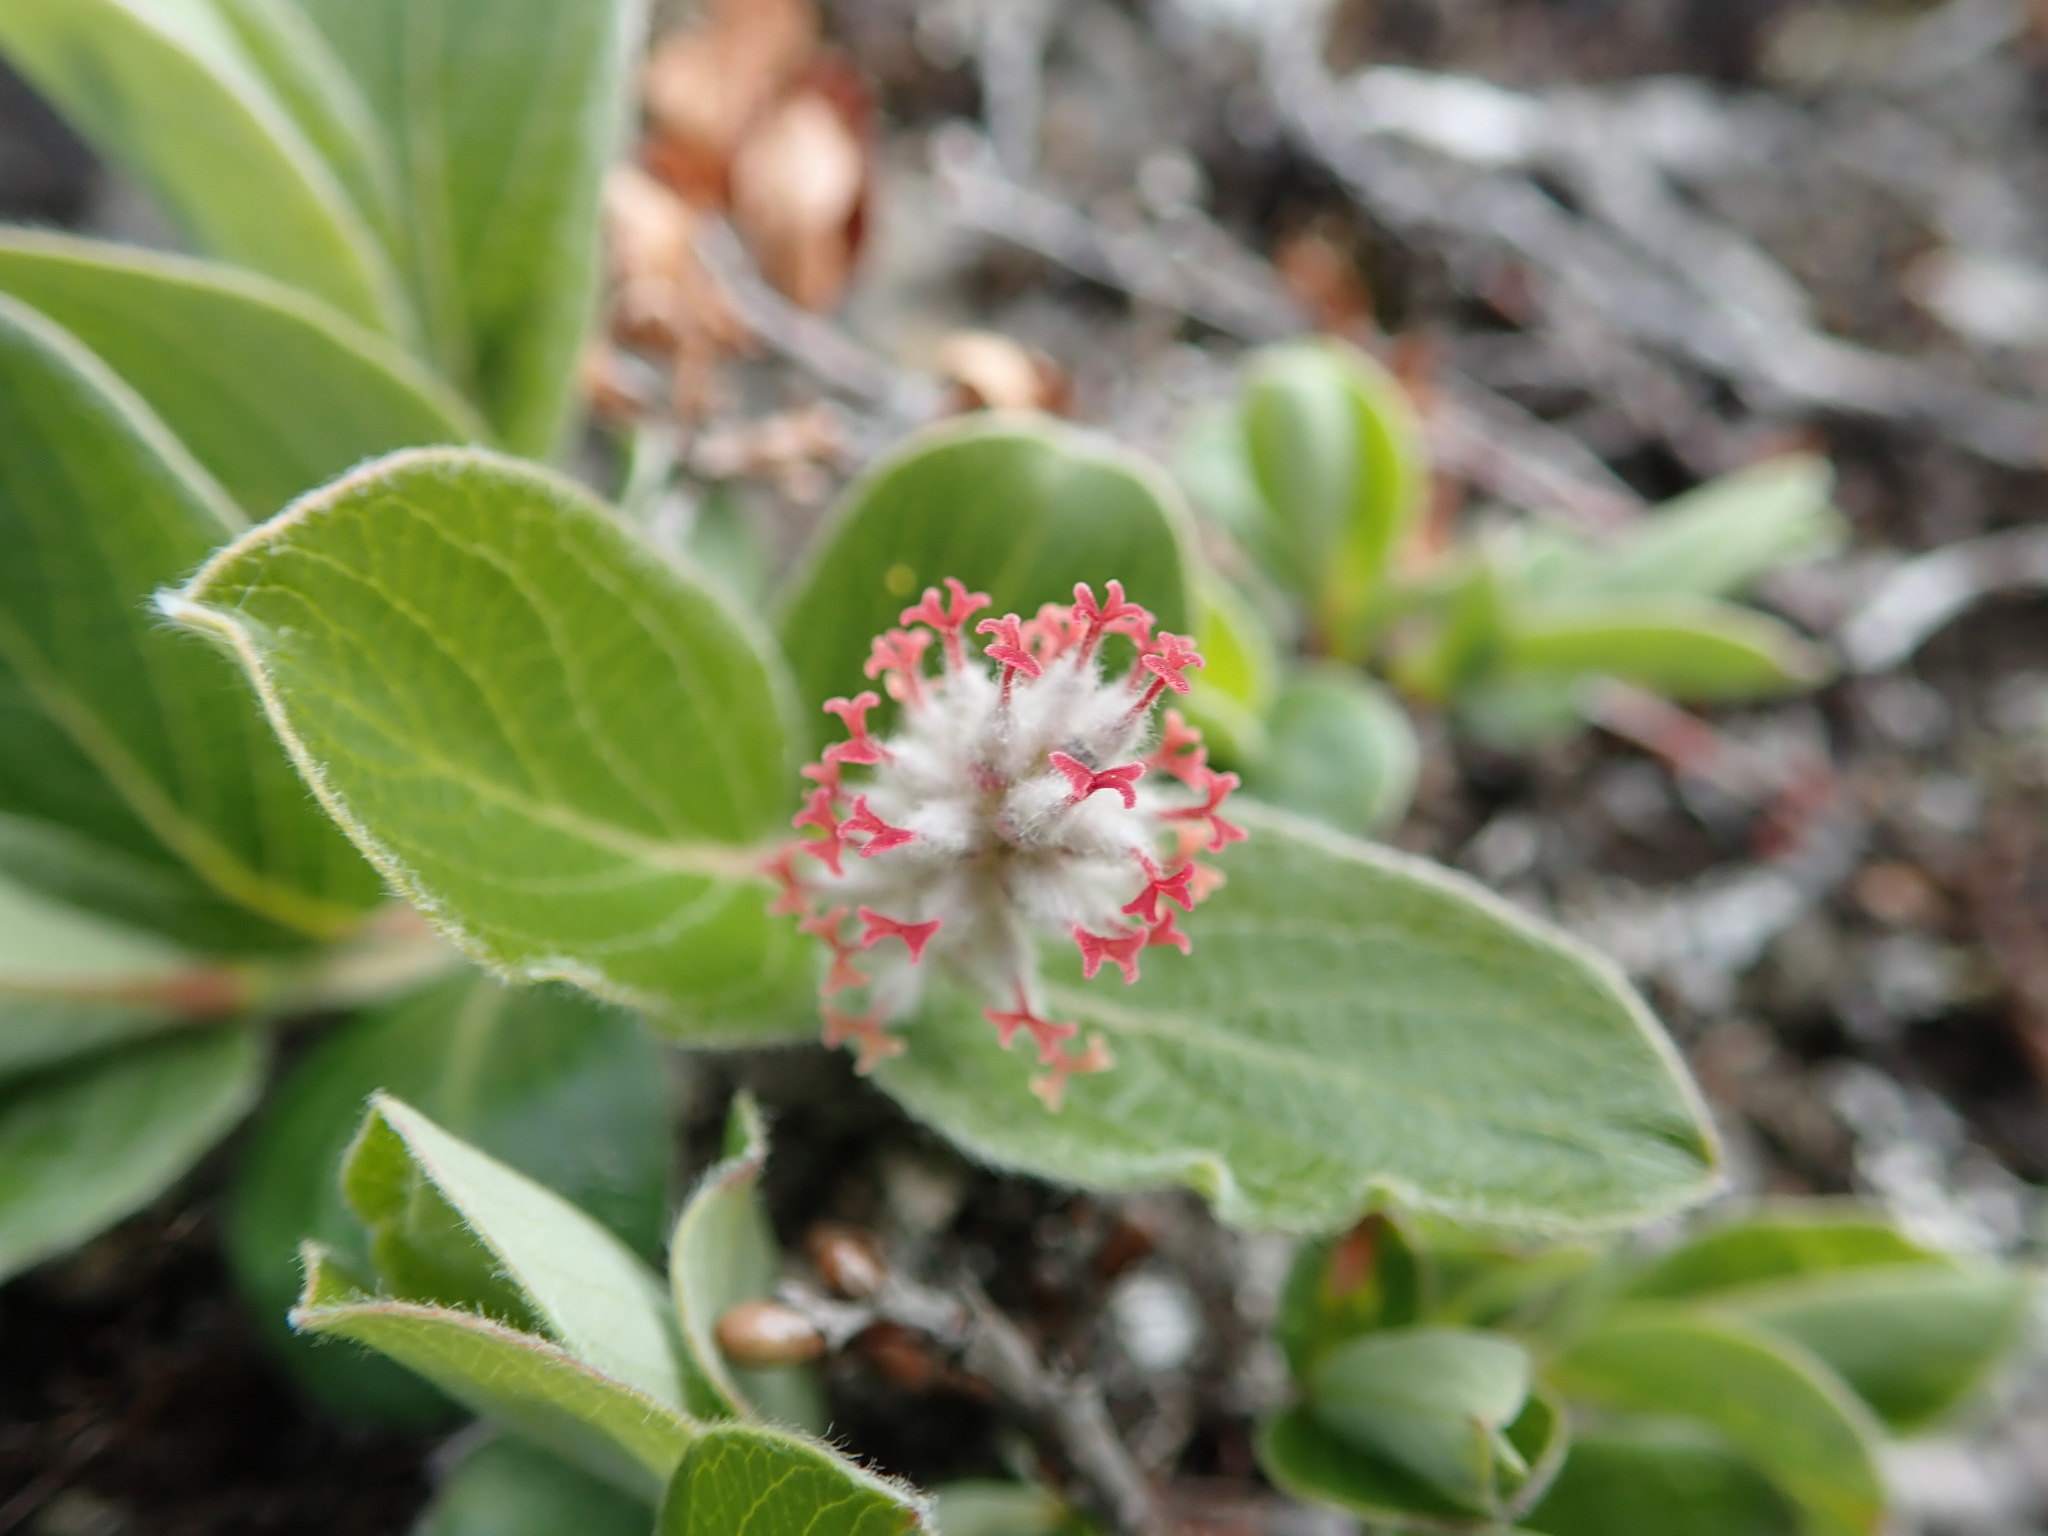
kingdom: Plantae
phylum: Tracheophyta
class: Magnoliopsida
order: Malpighiales
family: Salicaceae
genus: Salix
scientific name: Salix arctica
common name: Arctic willow
